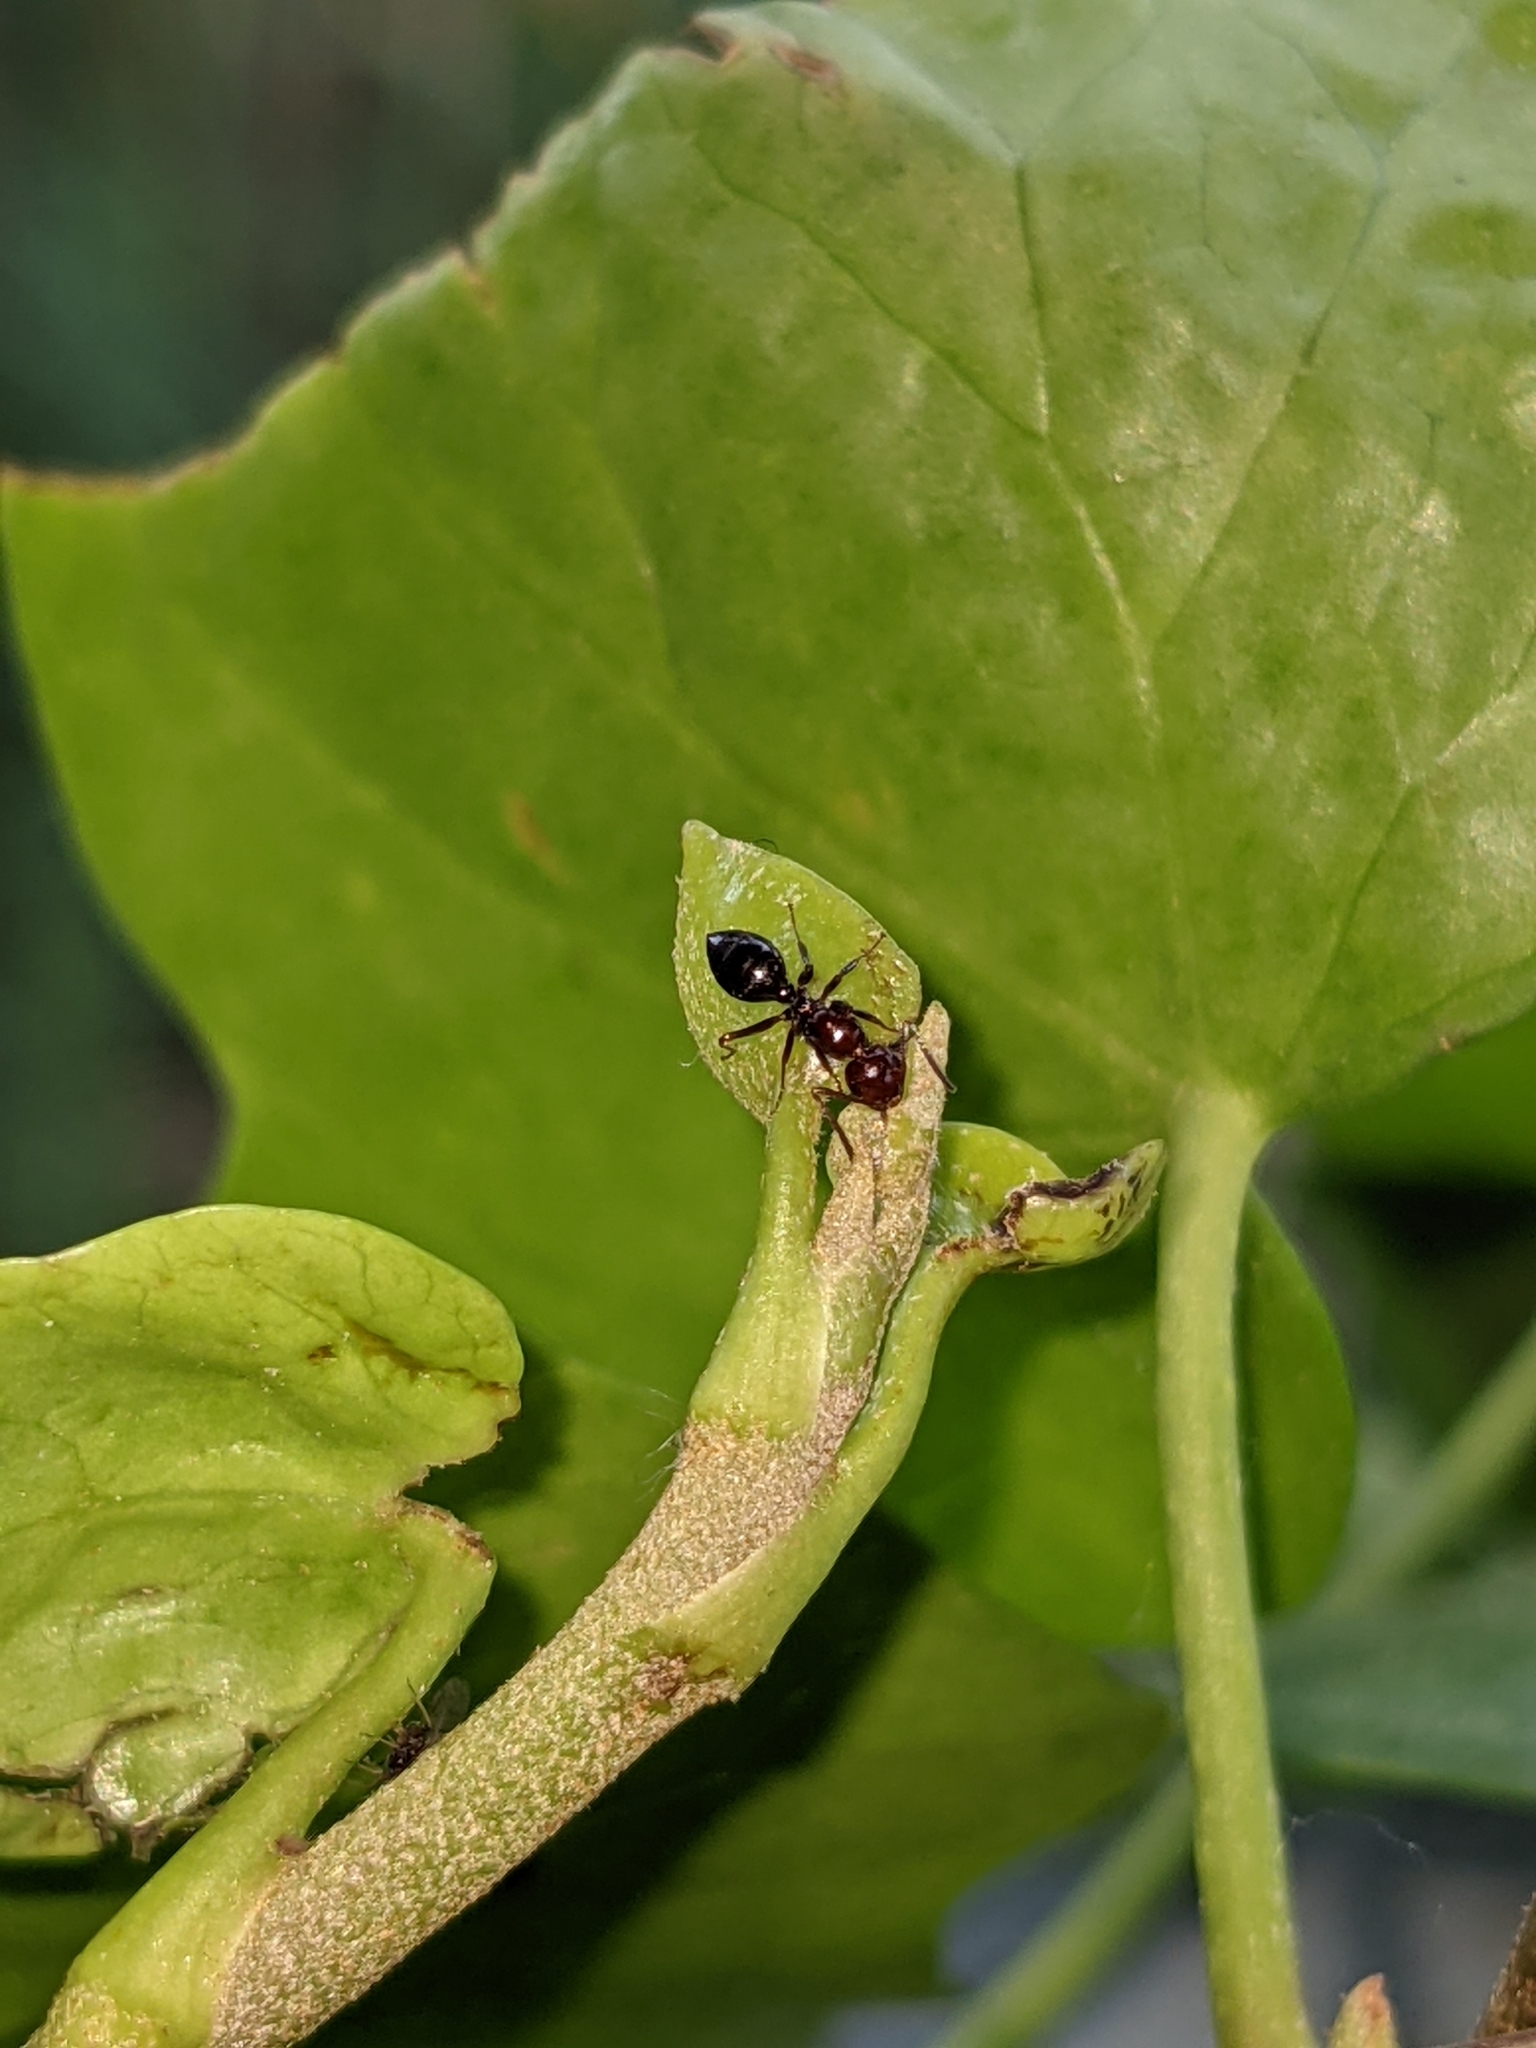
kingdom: Animalia
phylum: Arthropoda
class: Insecta
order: Hymenoptera
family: Formicidae
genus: Camponotus
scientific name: Camponotus lateralis
